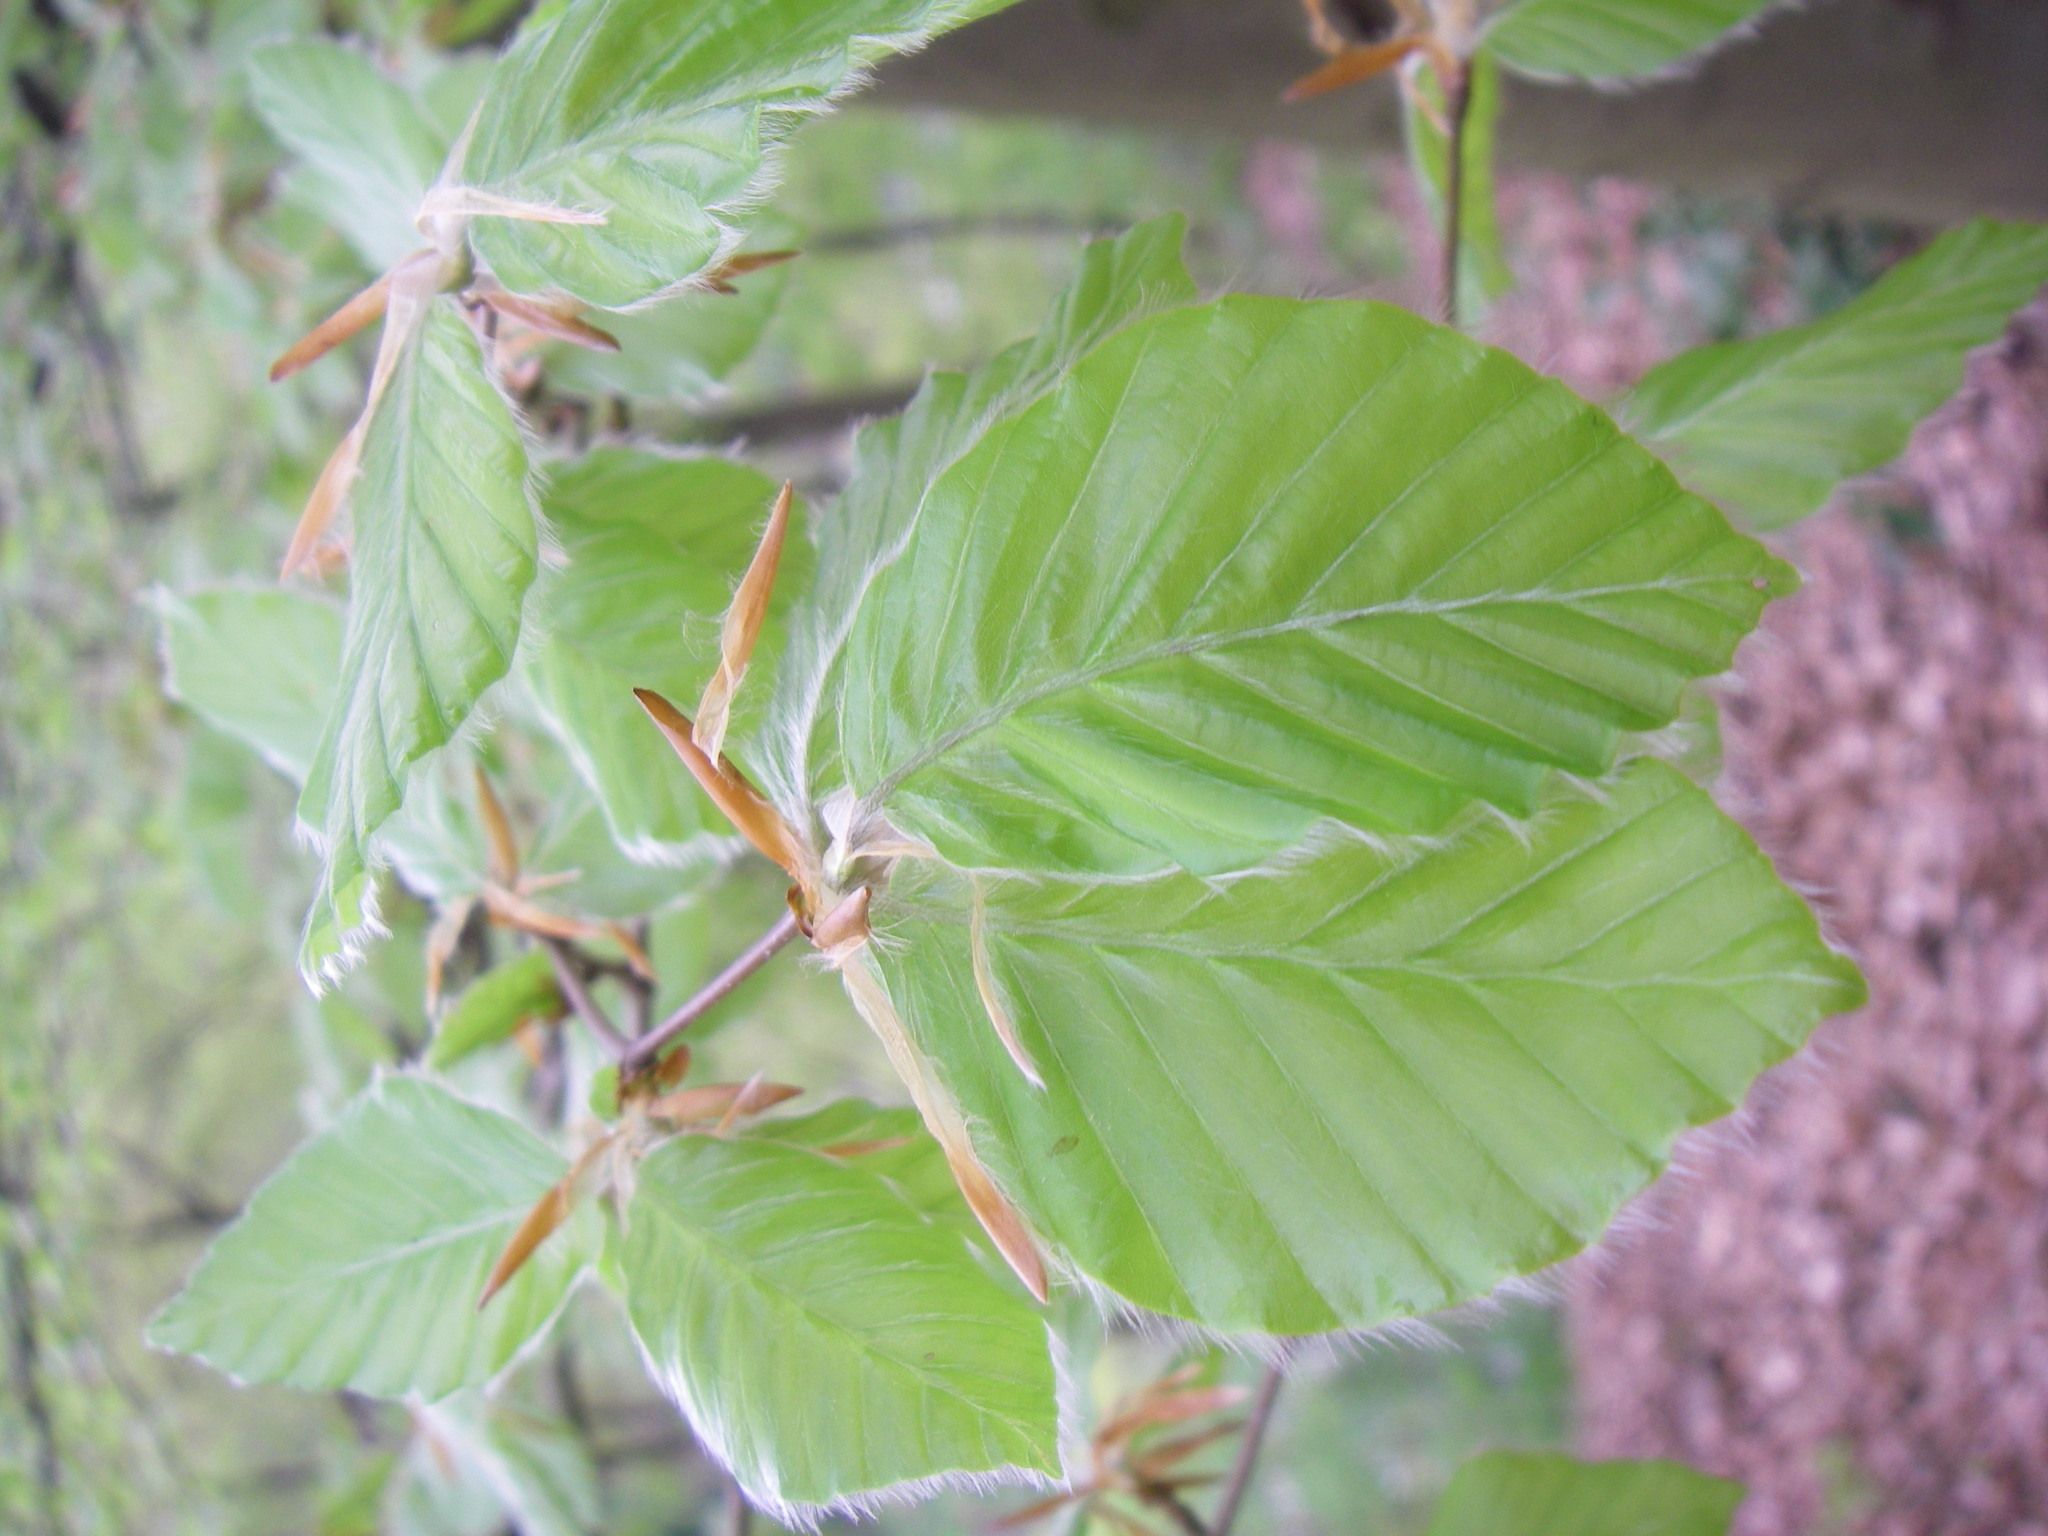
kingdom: Plantae
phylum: Tracheophyta
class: Magnoliopsida
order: Fagales
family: Fagaceae
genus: Fagus
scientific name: Fagus sylvatica
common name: Beech
